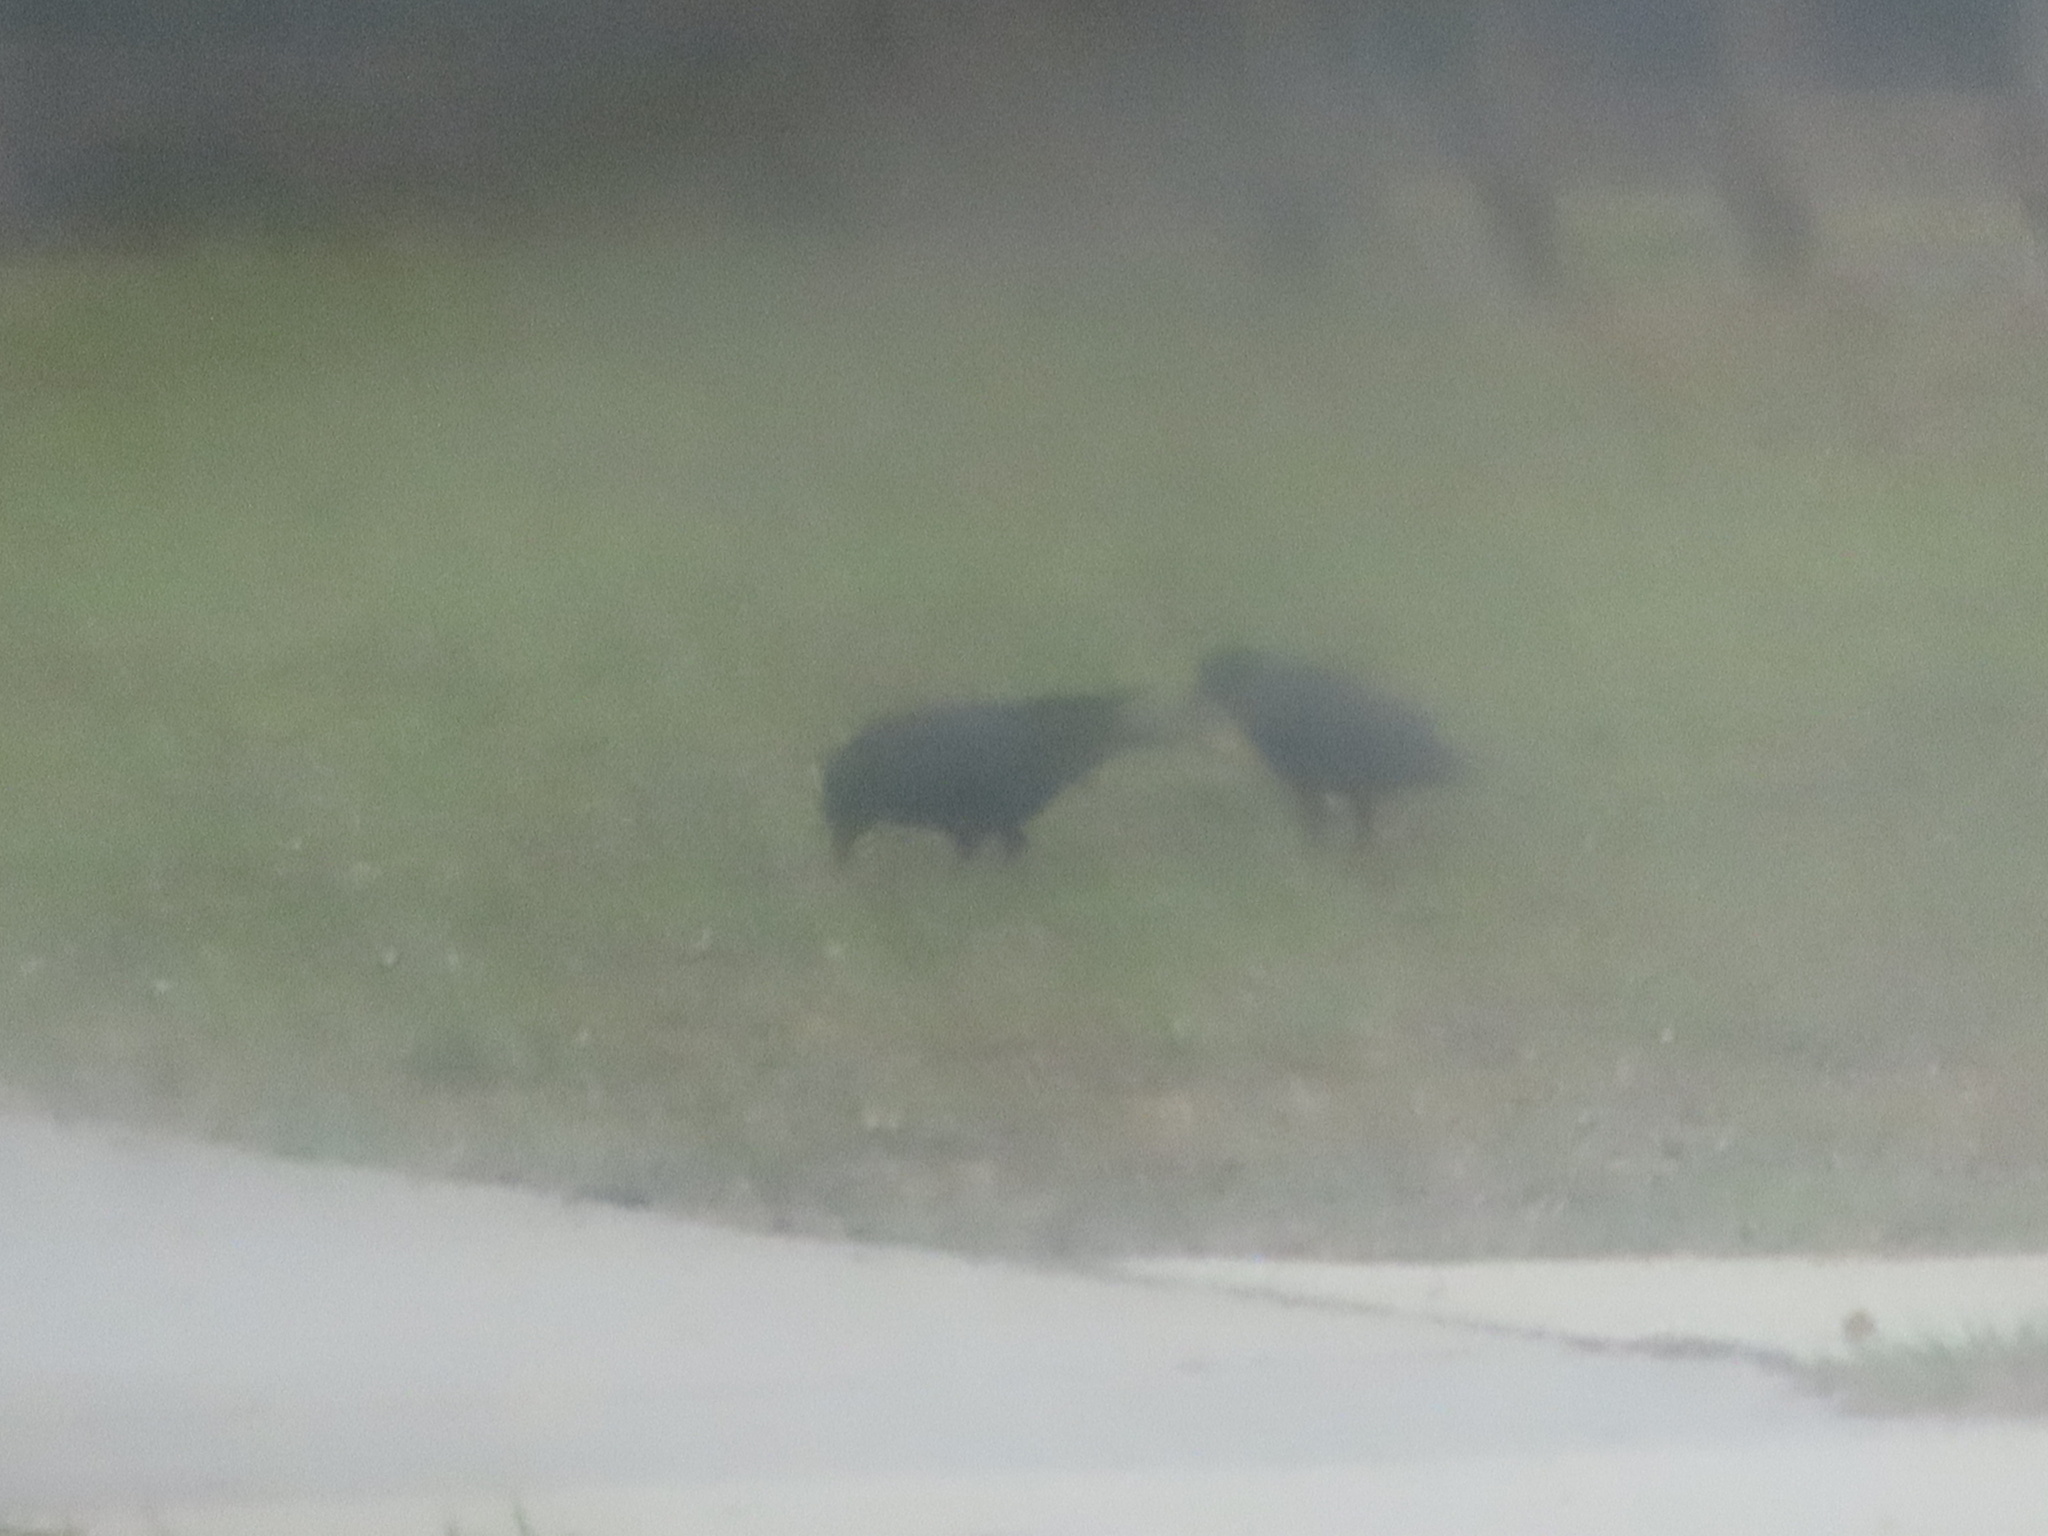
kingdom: Animalia
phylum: Chordata
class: Aves
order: Passeriformes
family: Corvidae
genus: Corvus
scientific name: Corvus
